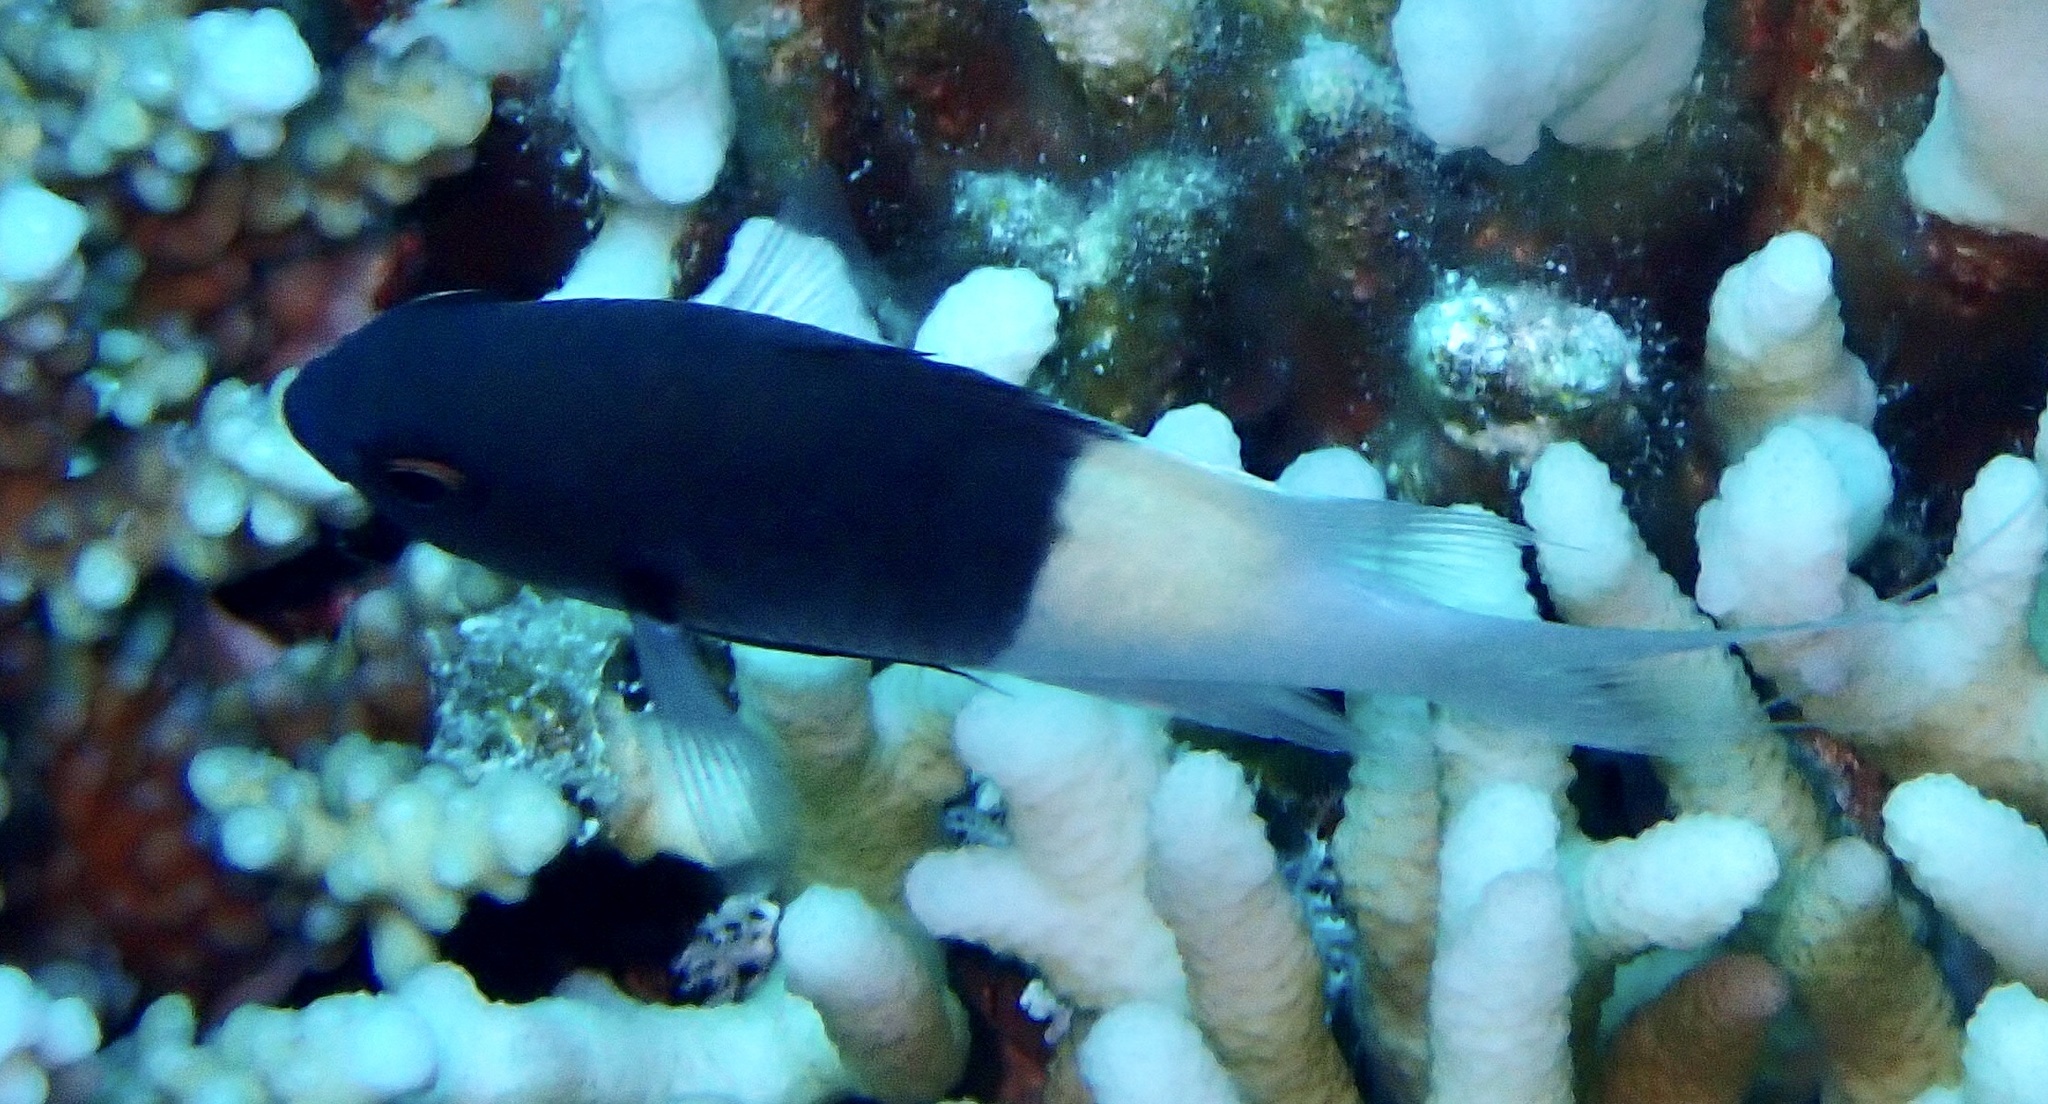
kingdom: Animalia
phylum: Chordata
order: Perciformes
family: Pomacentridae
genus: Chromis
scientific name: Chromis dimidiata
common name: Half-and-half chromis
